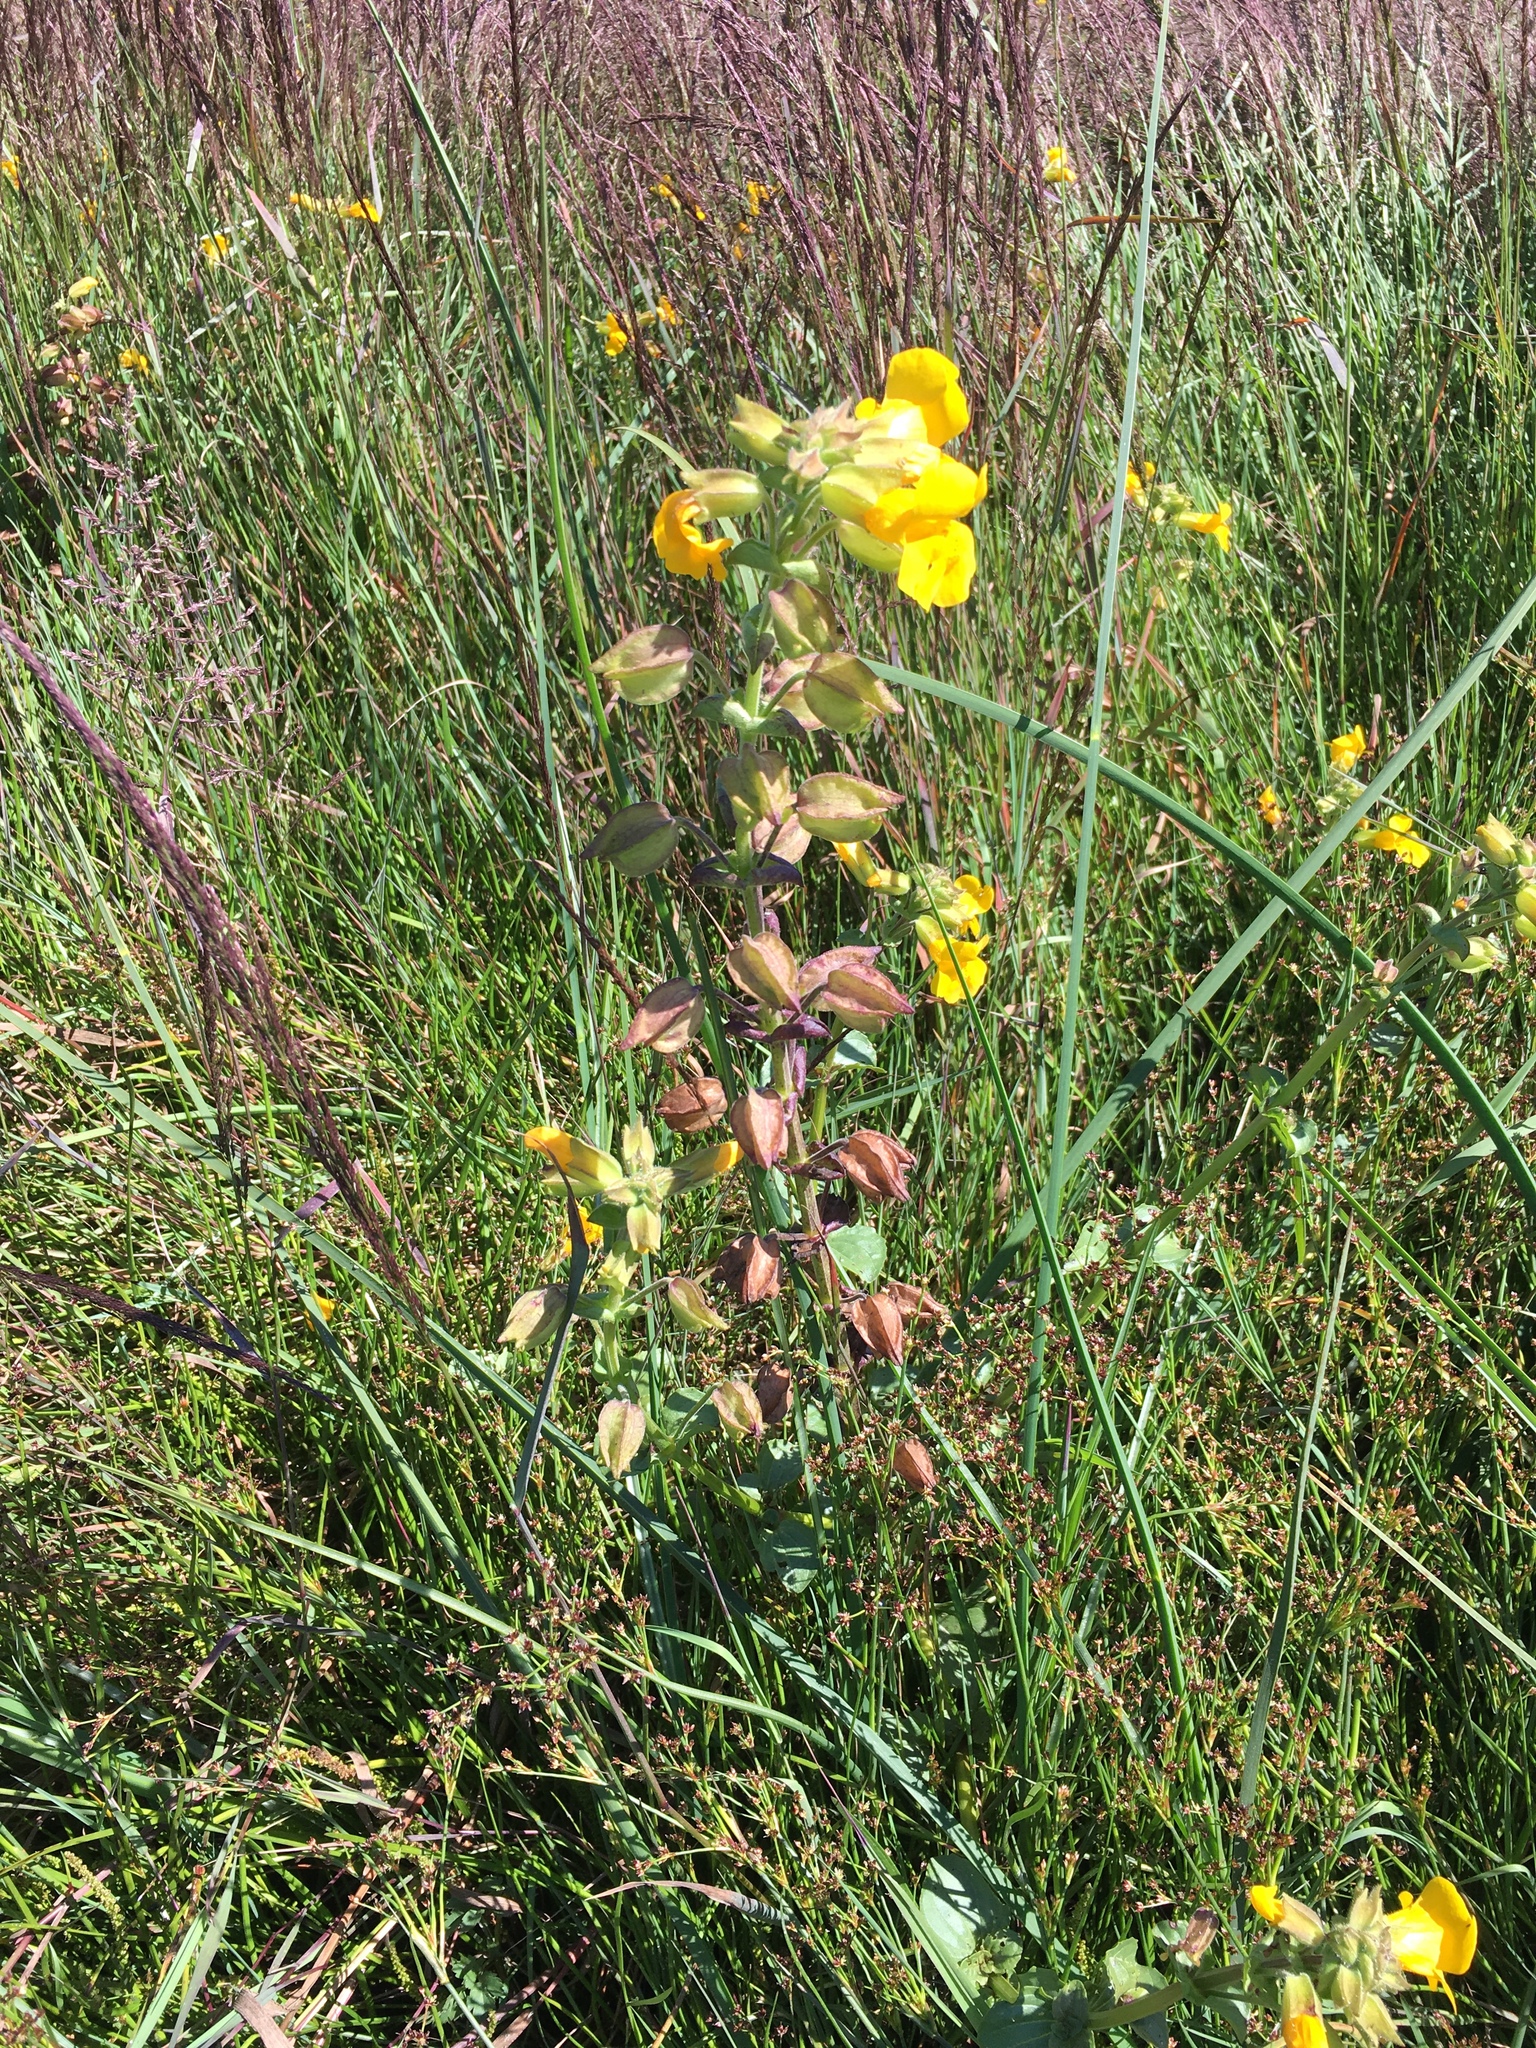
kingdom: Plantae
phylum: Tracheophyta
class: Magnoliopsida
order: Lamiales
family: Phrymaceae
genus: Erythranthe
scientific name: Erythranthe grandis
